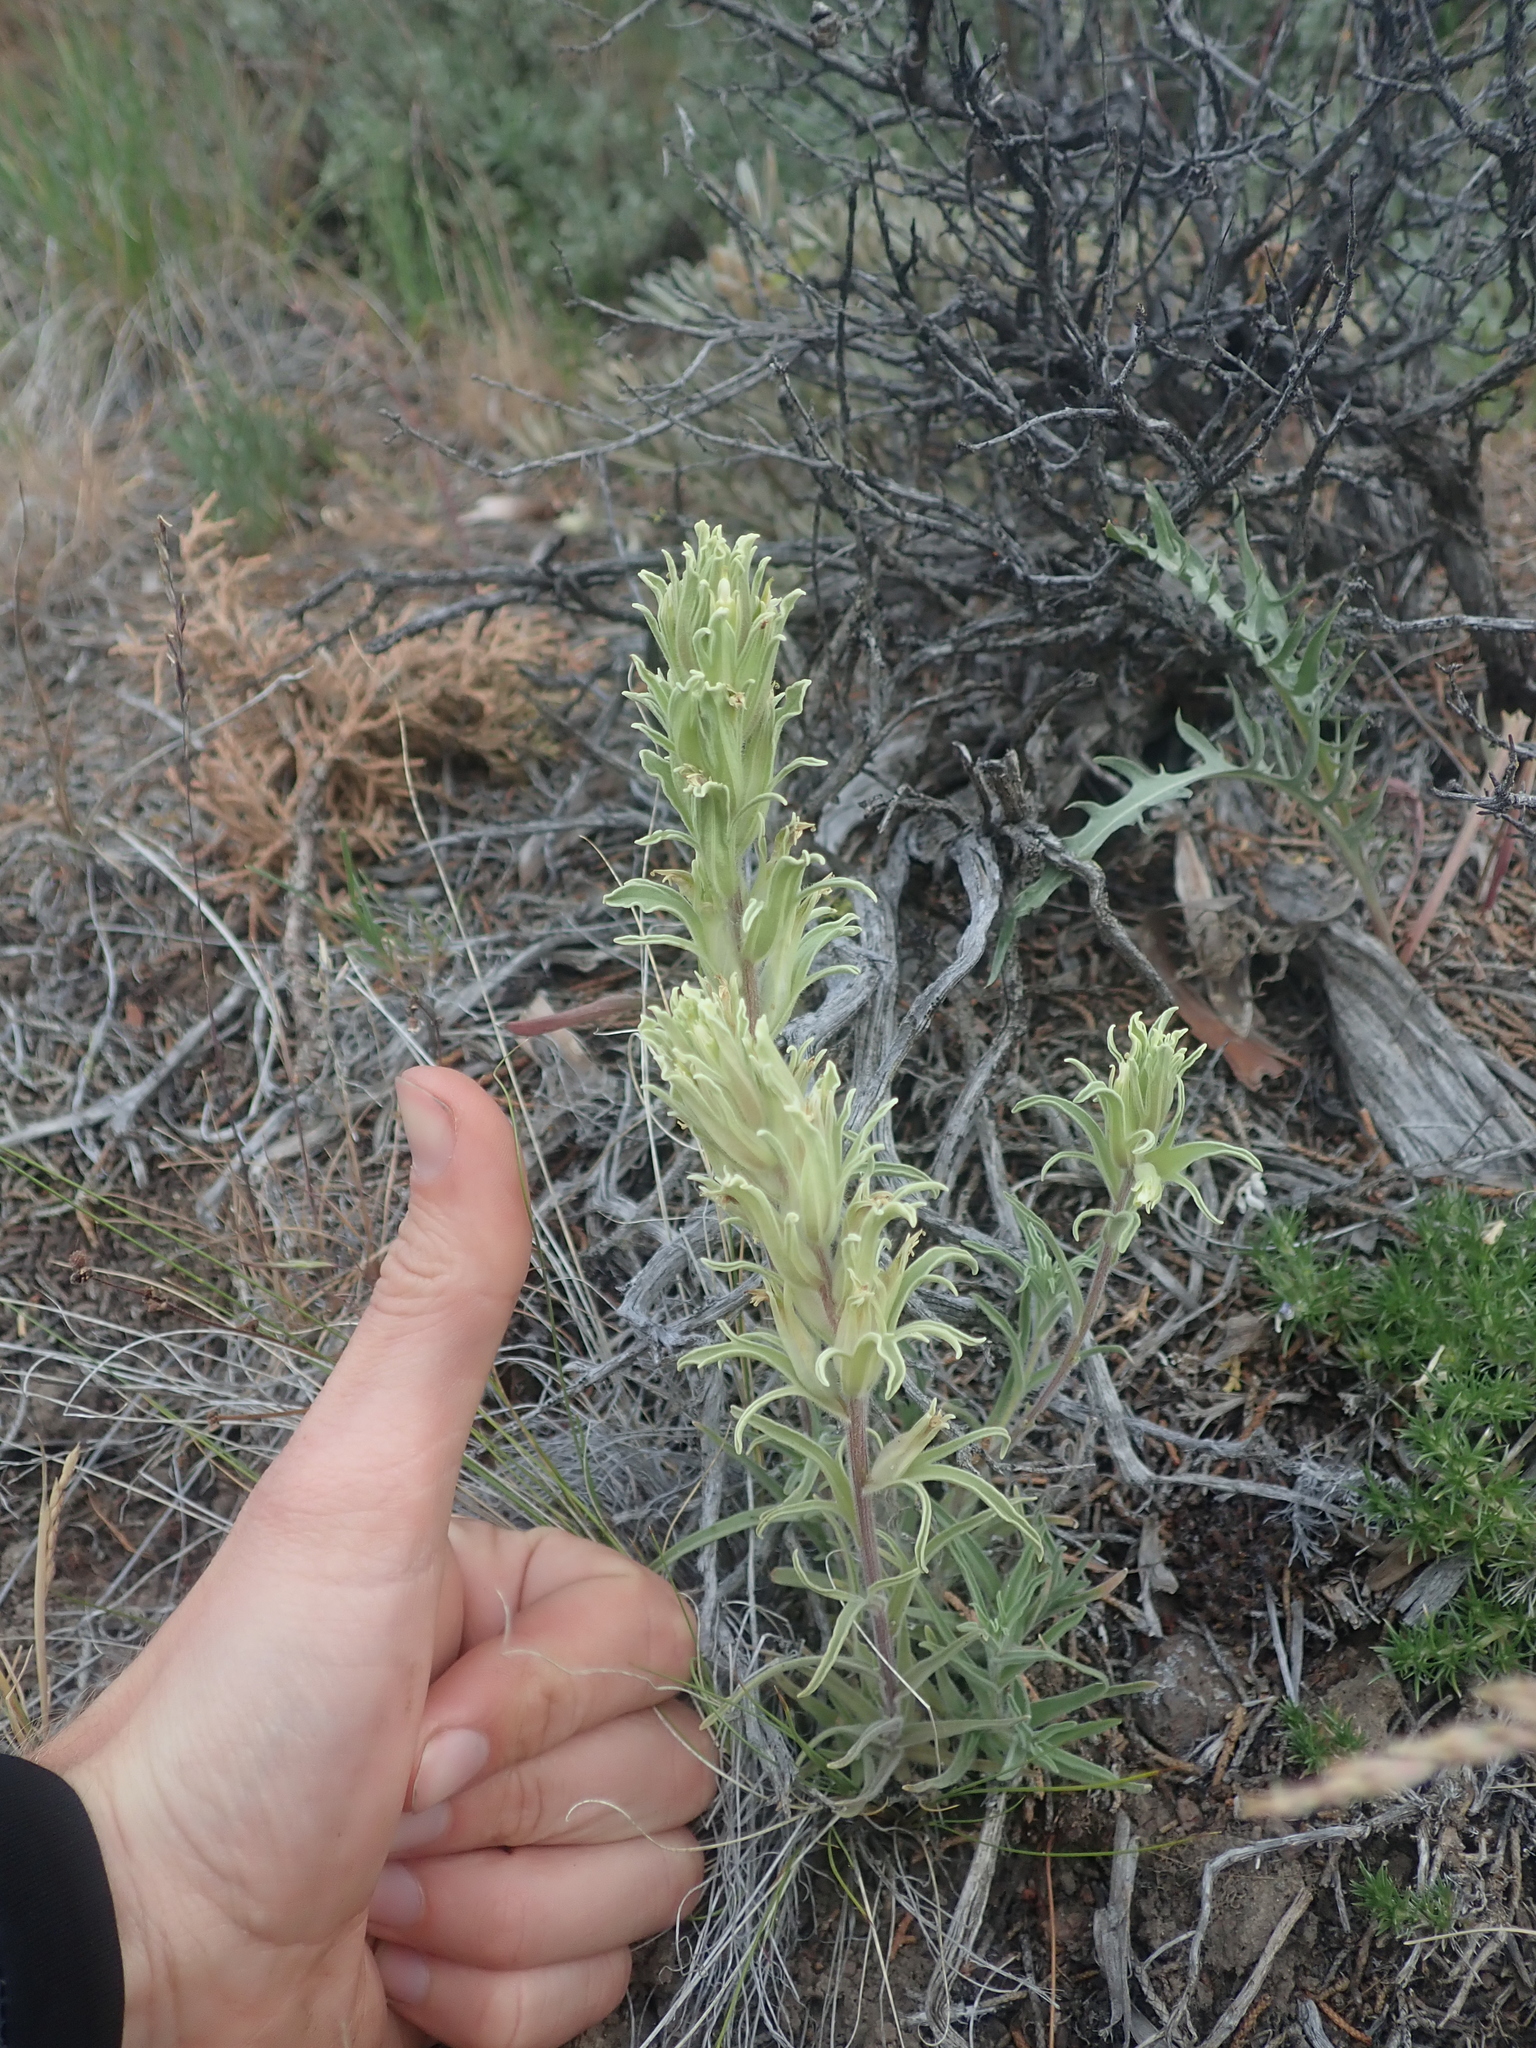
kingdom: Plantae
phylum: Tracheophyta
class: Magnoliopsida
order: Lamiales
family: Orobanchaceae
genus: Castilleja
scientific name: Castilleja pilosa
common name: Hairy paintbrush
